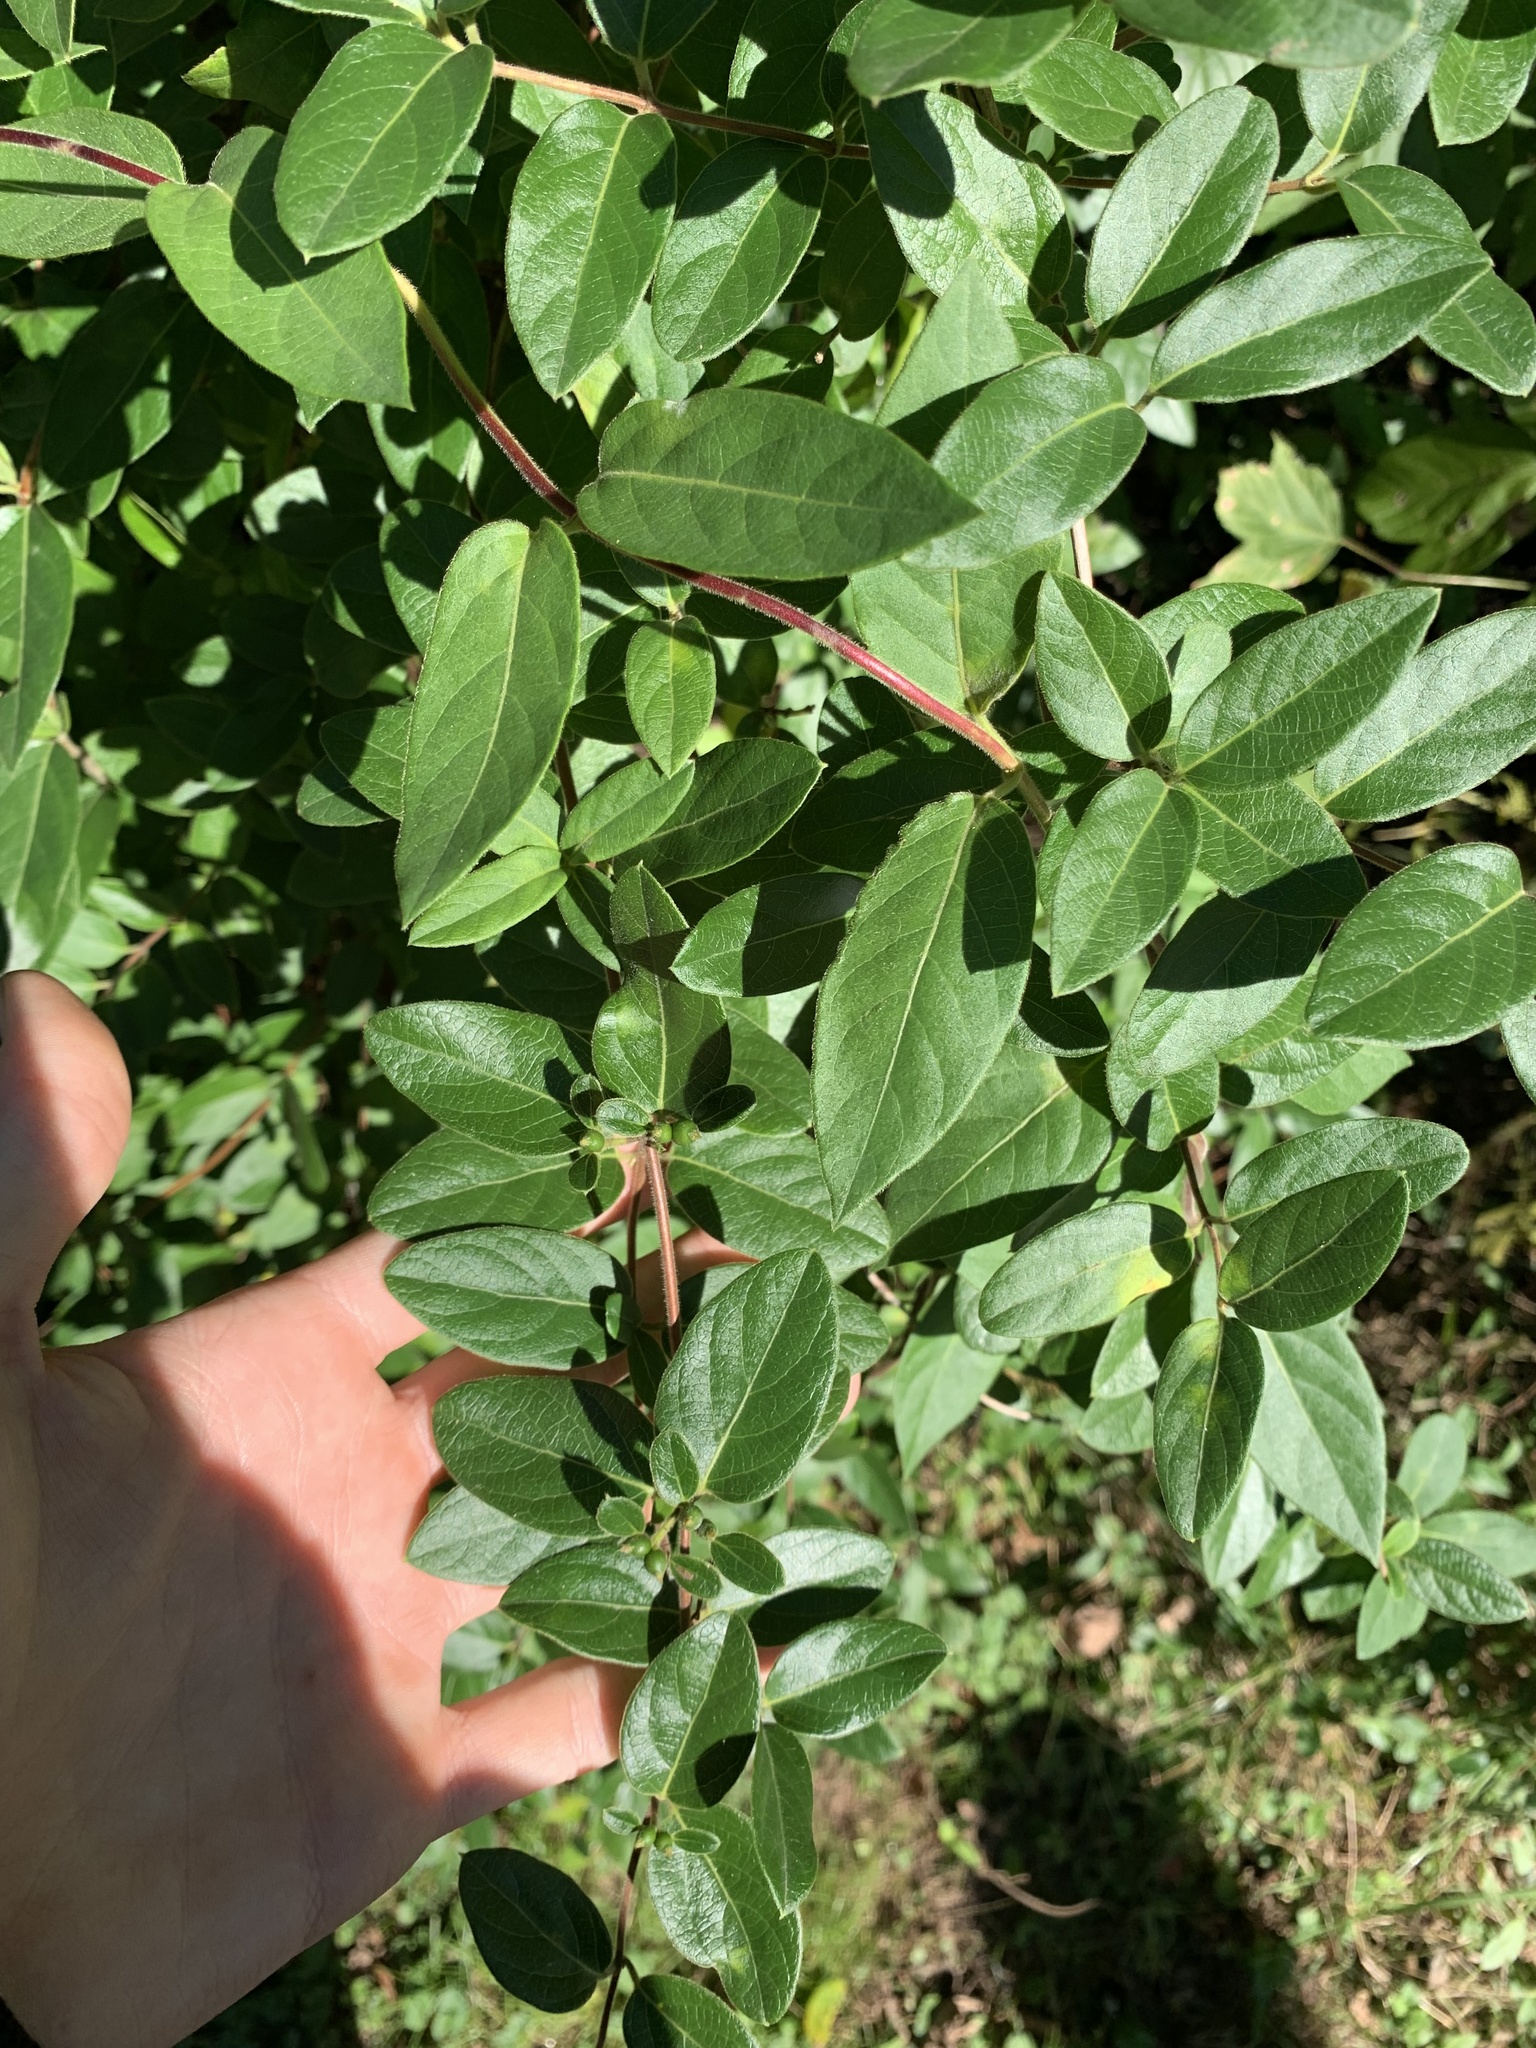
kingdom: Plantae
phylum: Tracheophyta
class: Magnoliopsida
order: Dipsacales
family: Caprifoliaceae
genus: Lonicera
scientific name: Lonicera japonica
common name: Japanese honeysuckle
